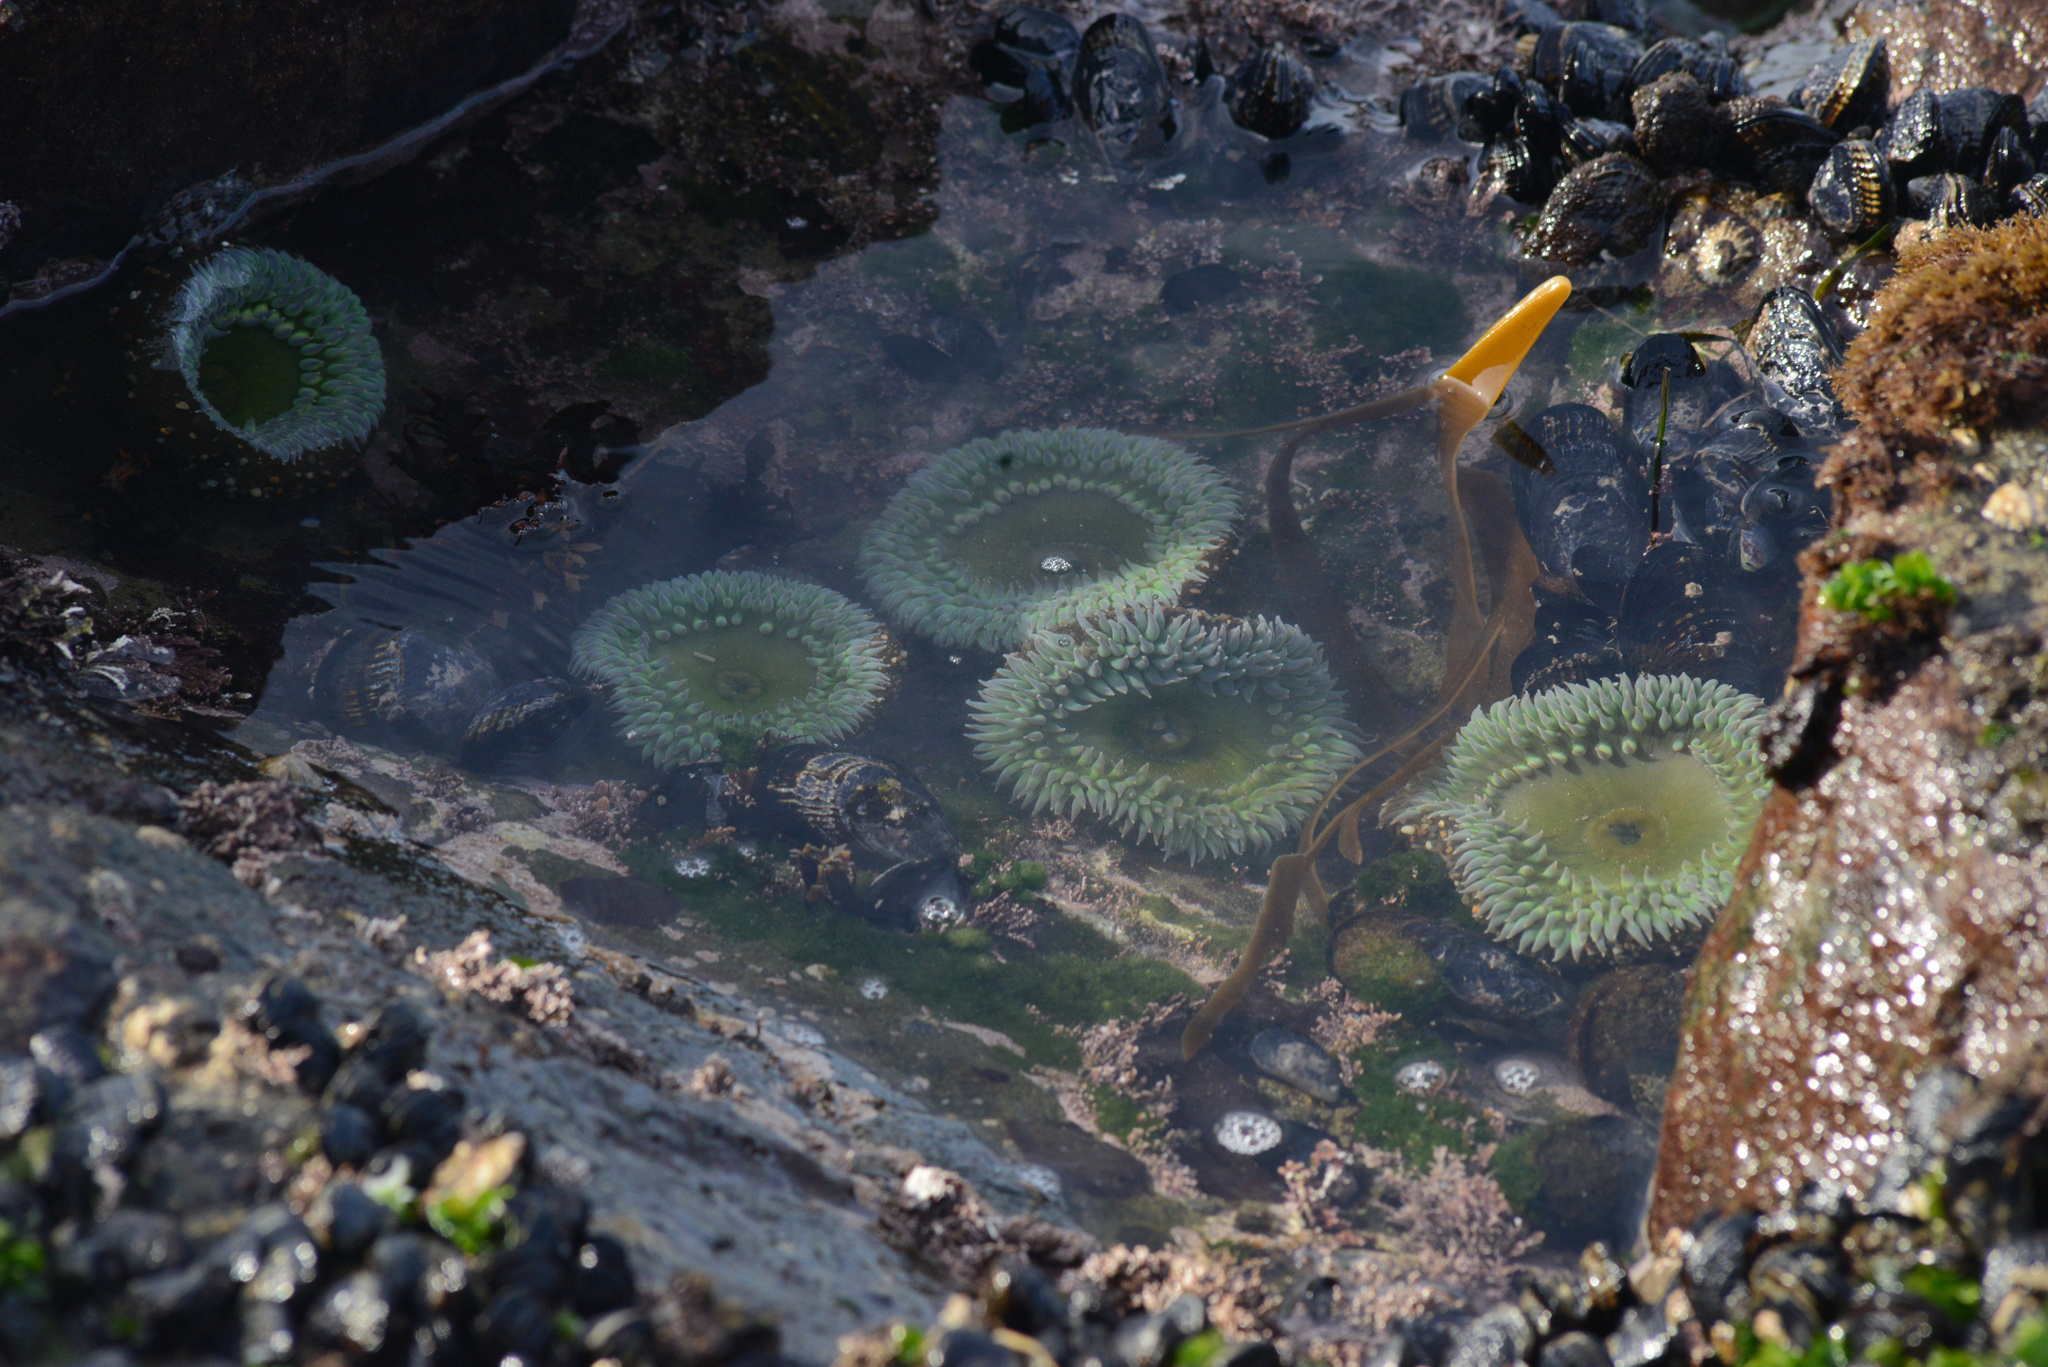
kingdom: Animalia
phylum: Cnidaria
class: Anthozoa
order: Actiniaria
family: Actiniidae
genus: Anthopleura
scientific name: Anthopleura xanthogrammica
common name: Giant green anemone
